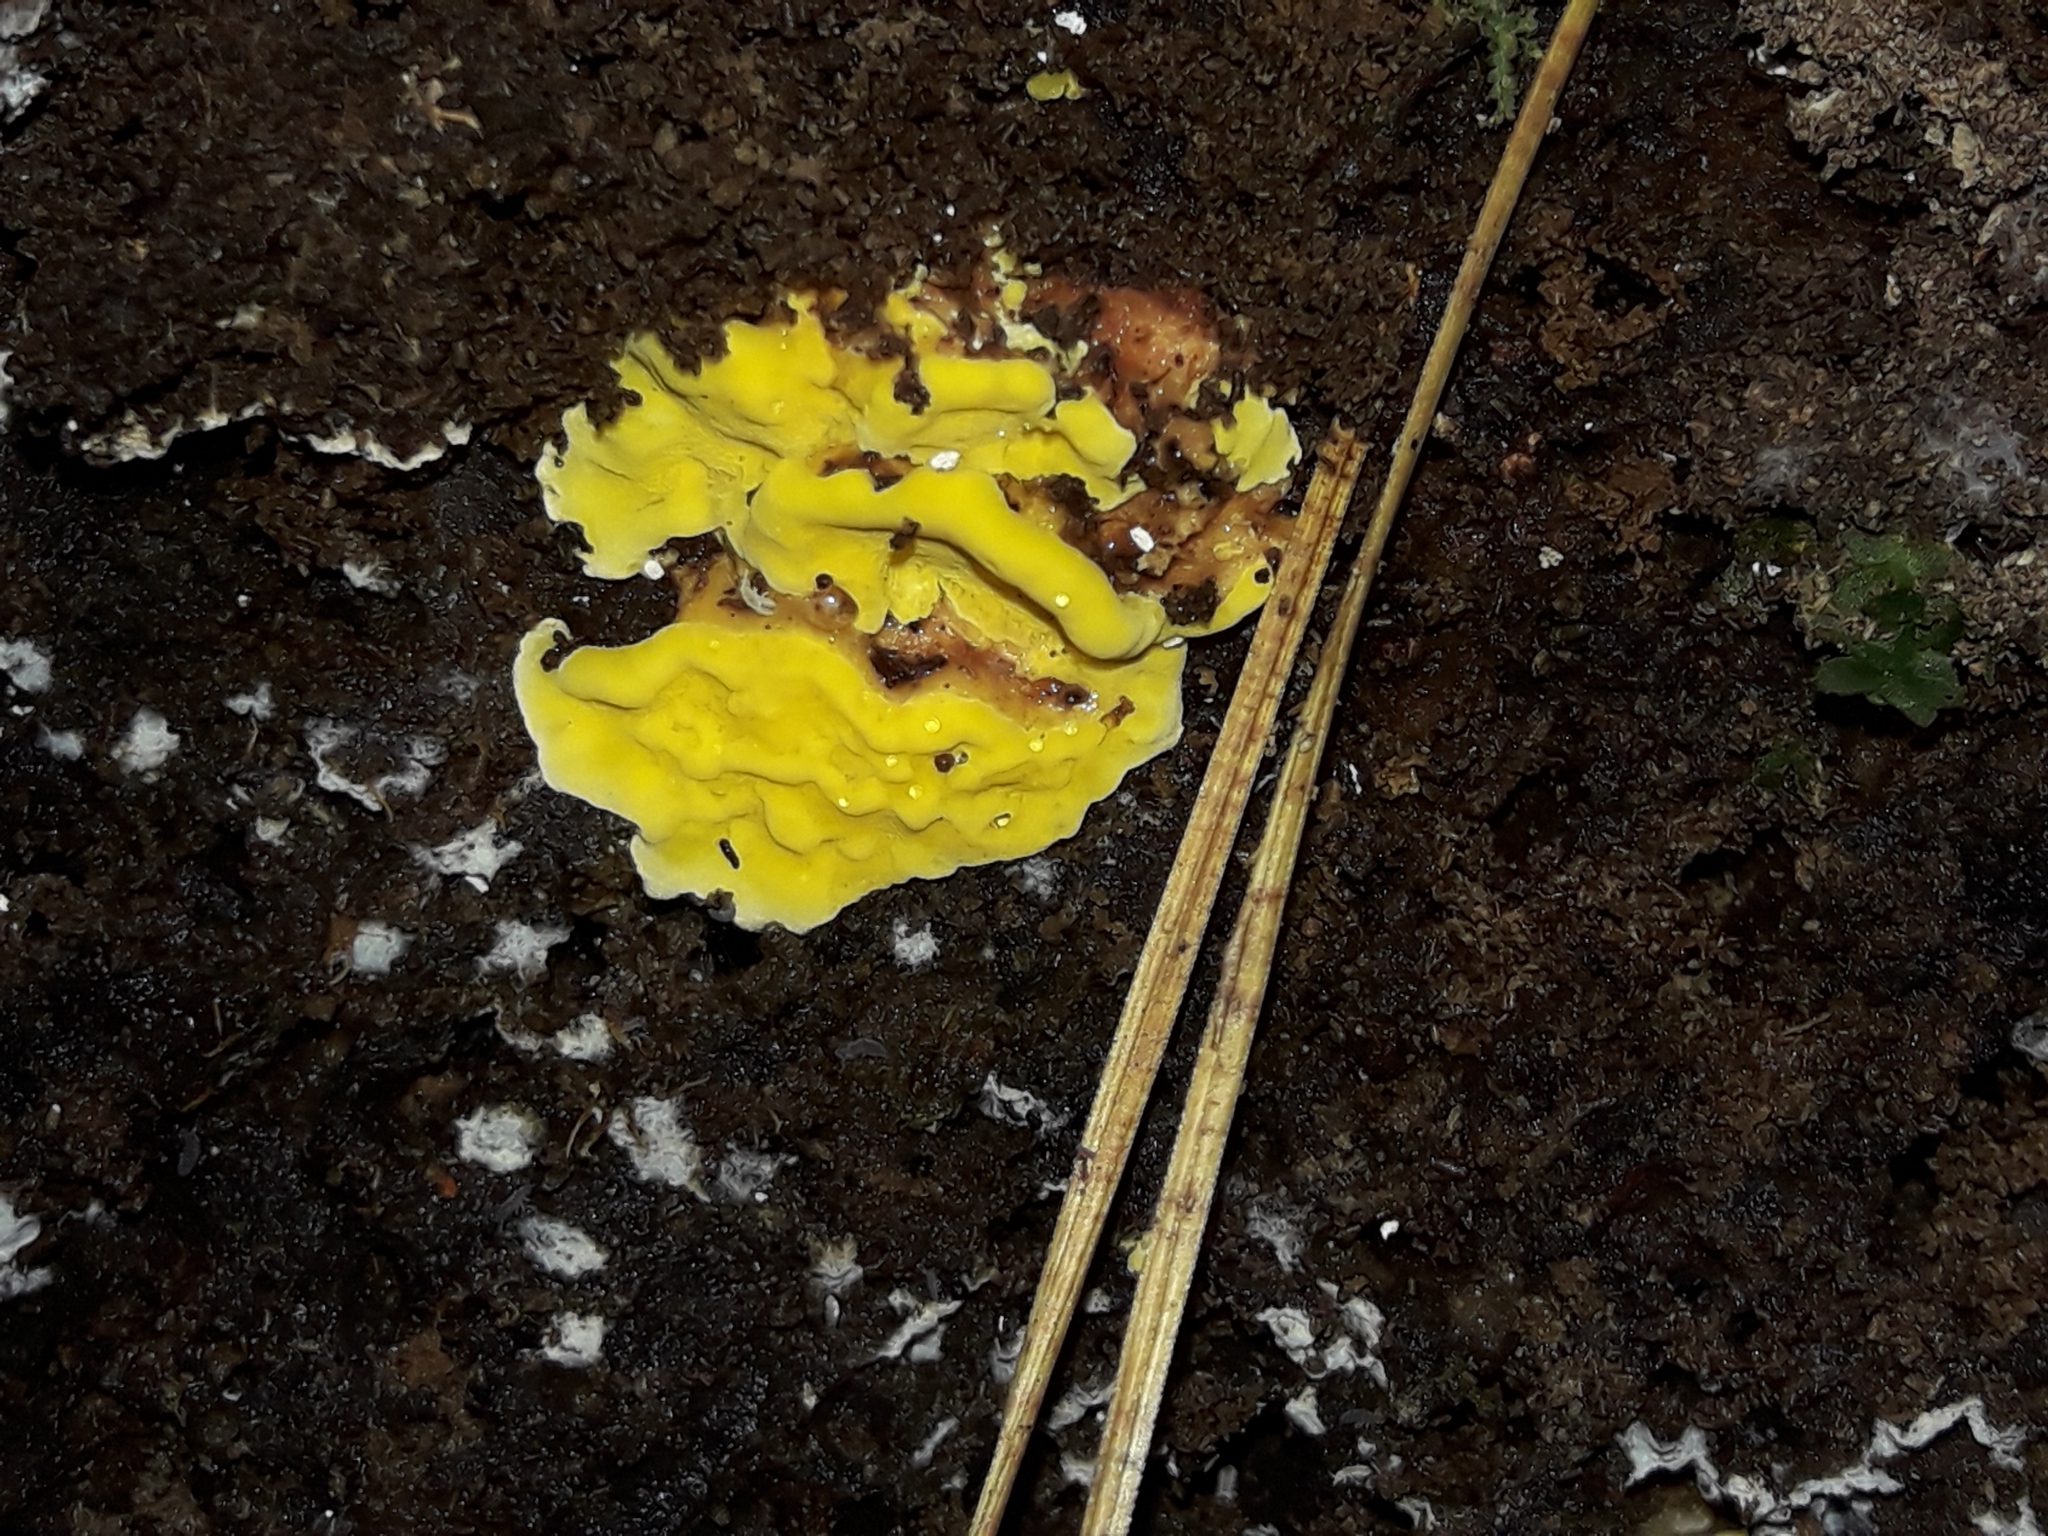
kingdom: Fungi
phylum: Basidiomycota
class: Agaricomycetes
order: Polyporales
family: Steccherinaceae
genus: Flaviporus
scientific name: Flaviporus brownii
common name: Yellowpored bracket
